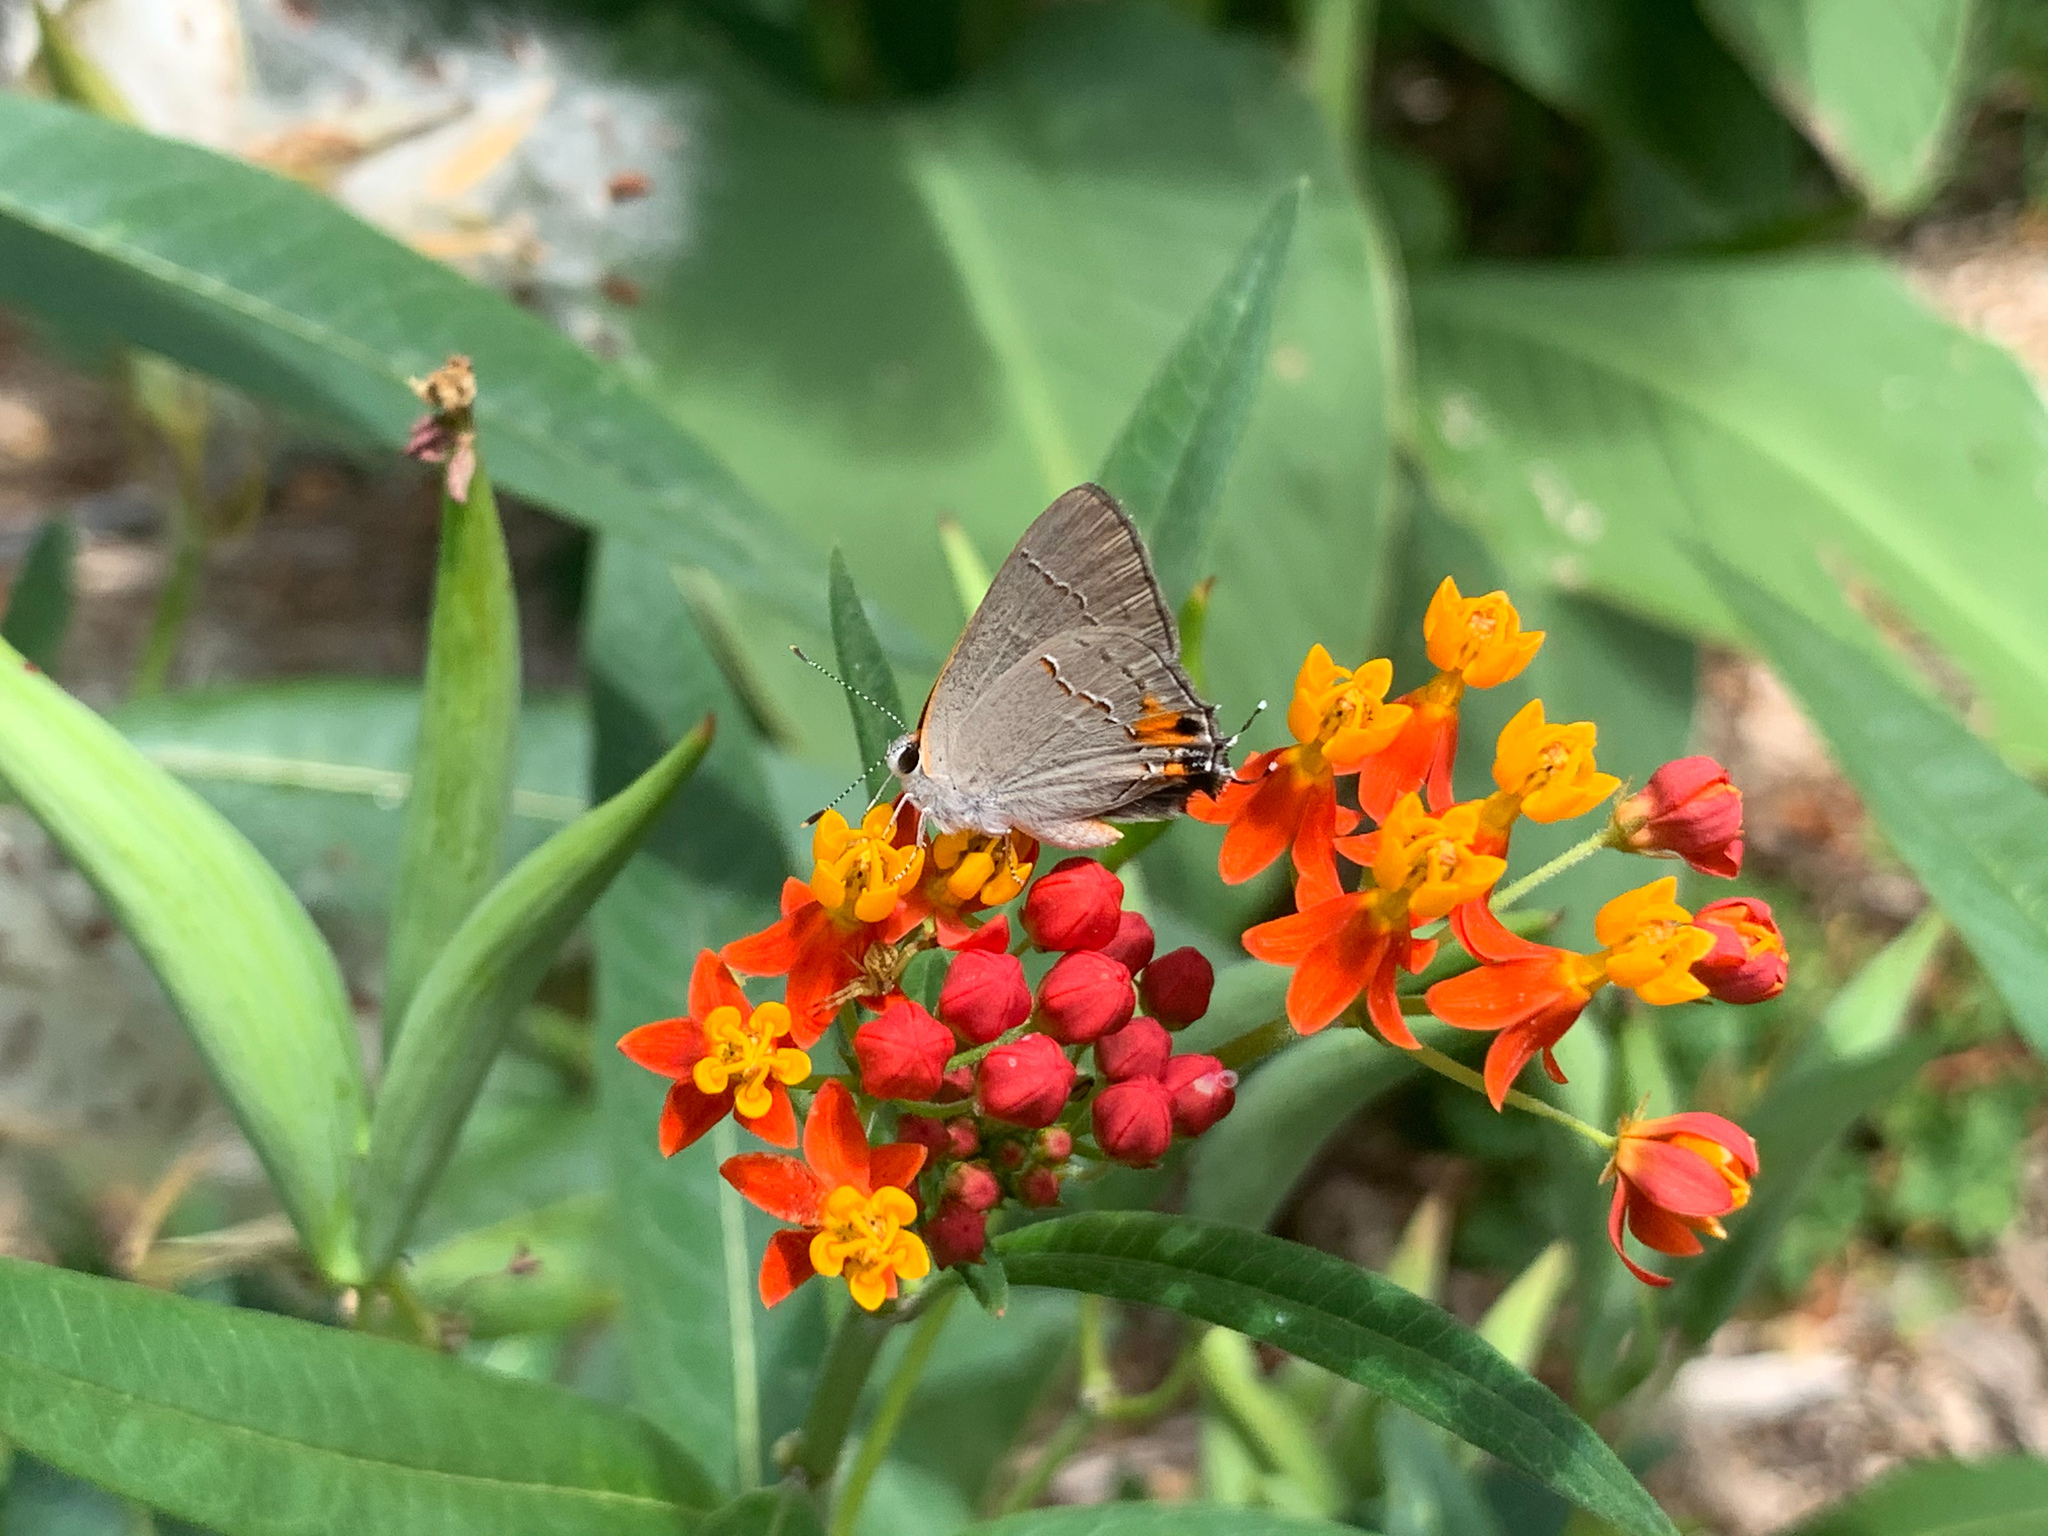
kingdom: Animalia
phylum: Arthropoda
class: Insecta
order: Lepidoptera
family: Lycaenidae
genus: Strymon
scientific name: Strymon melinus
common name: Gray hairstreak
